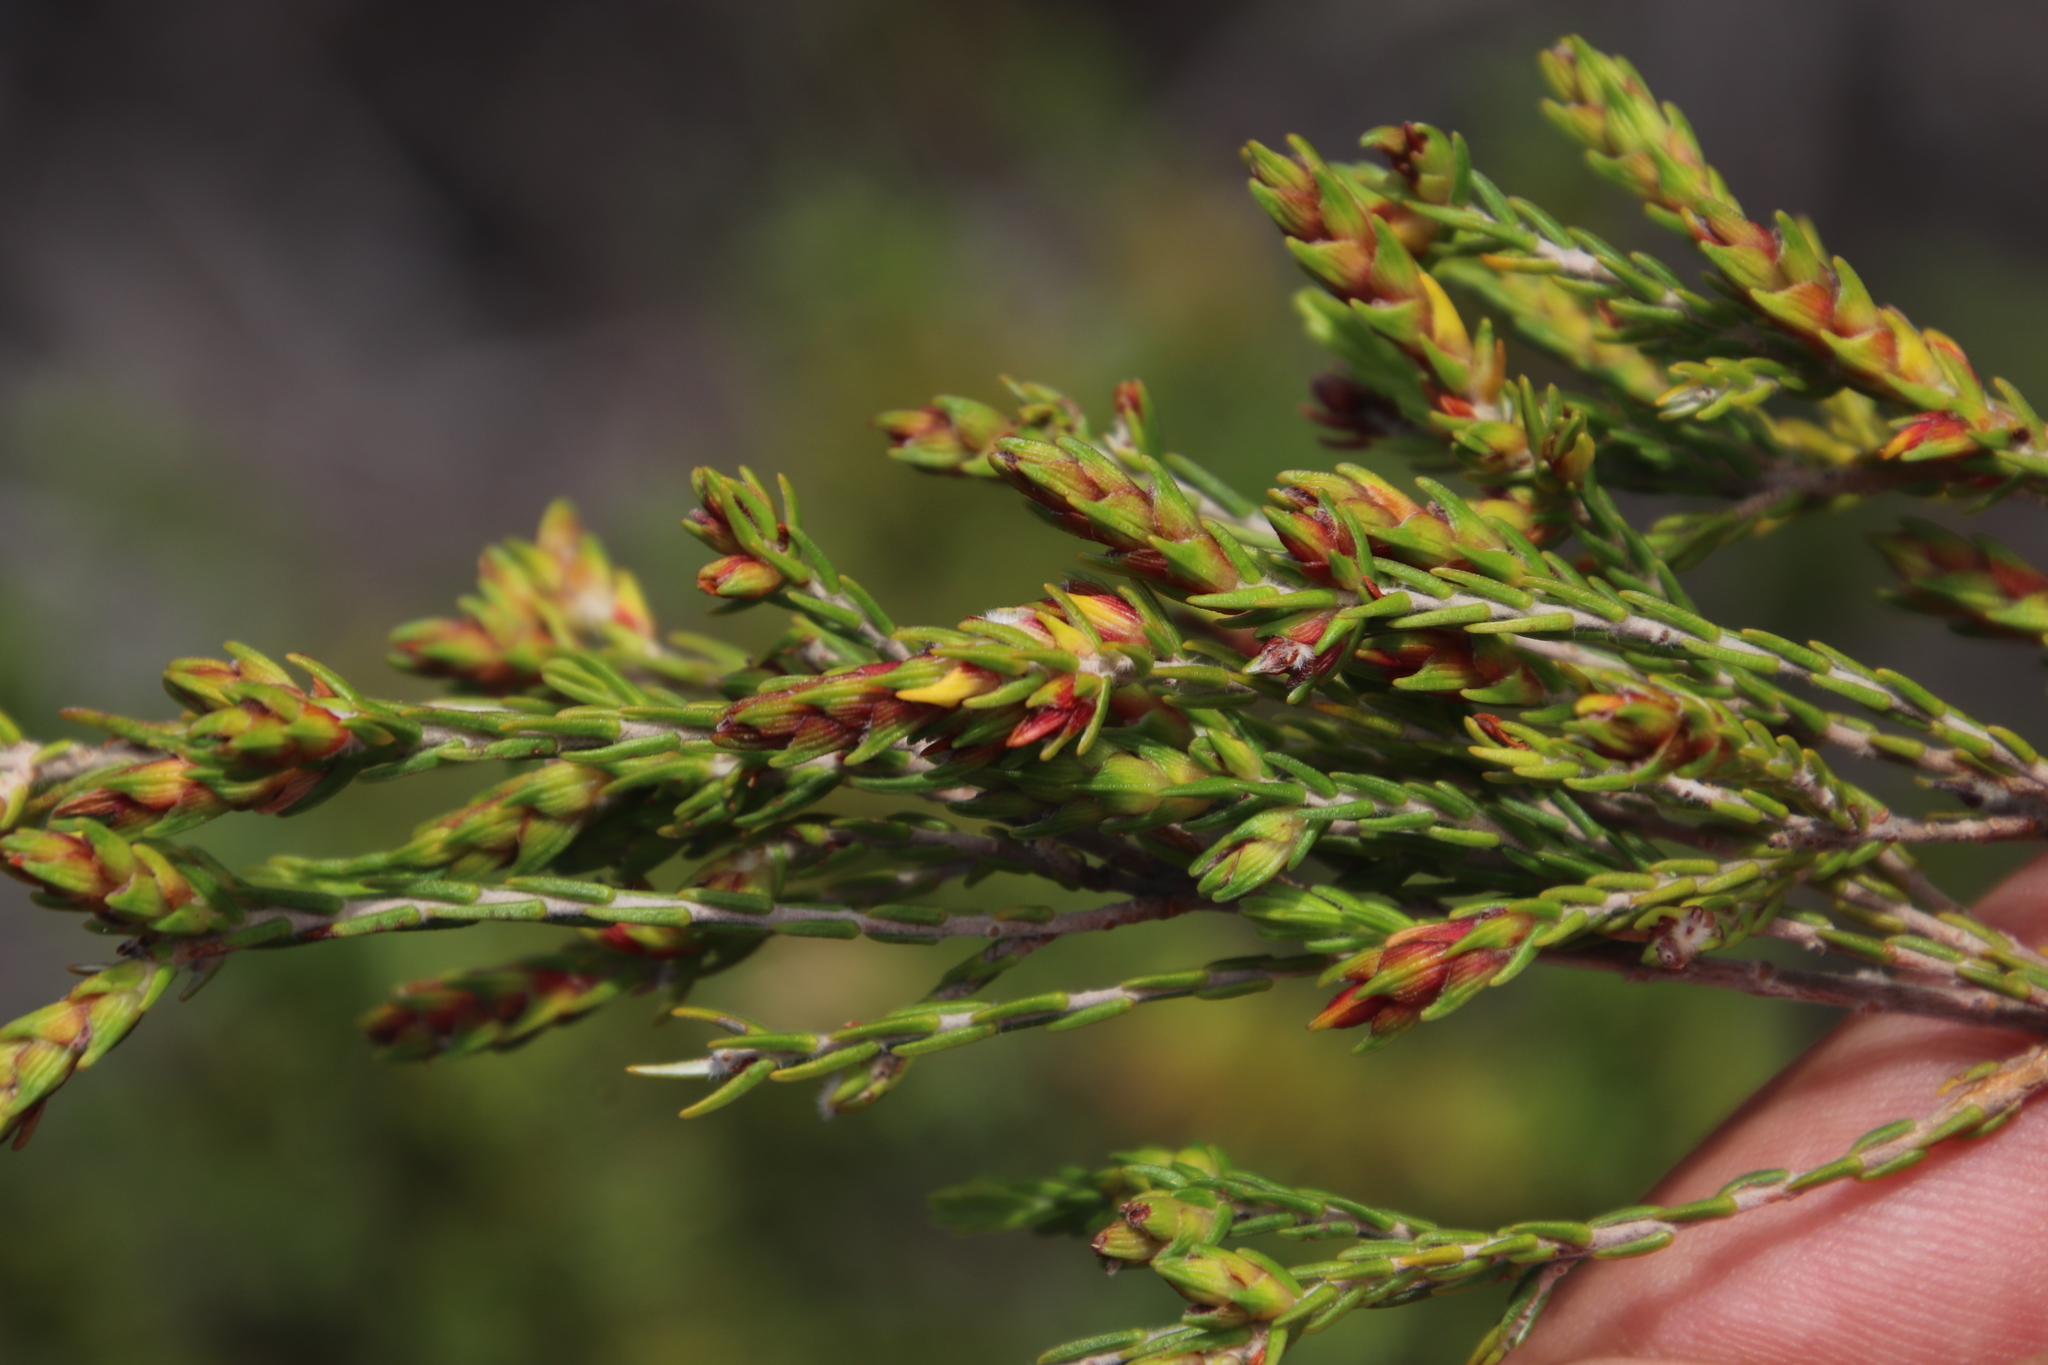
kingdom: Plantae
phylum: Tracheophyta
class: Magnoliopsida
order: Malvales
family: Thymelaeaceae
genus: Passerina
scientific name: Passerina corymbosa
